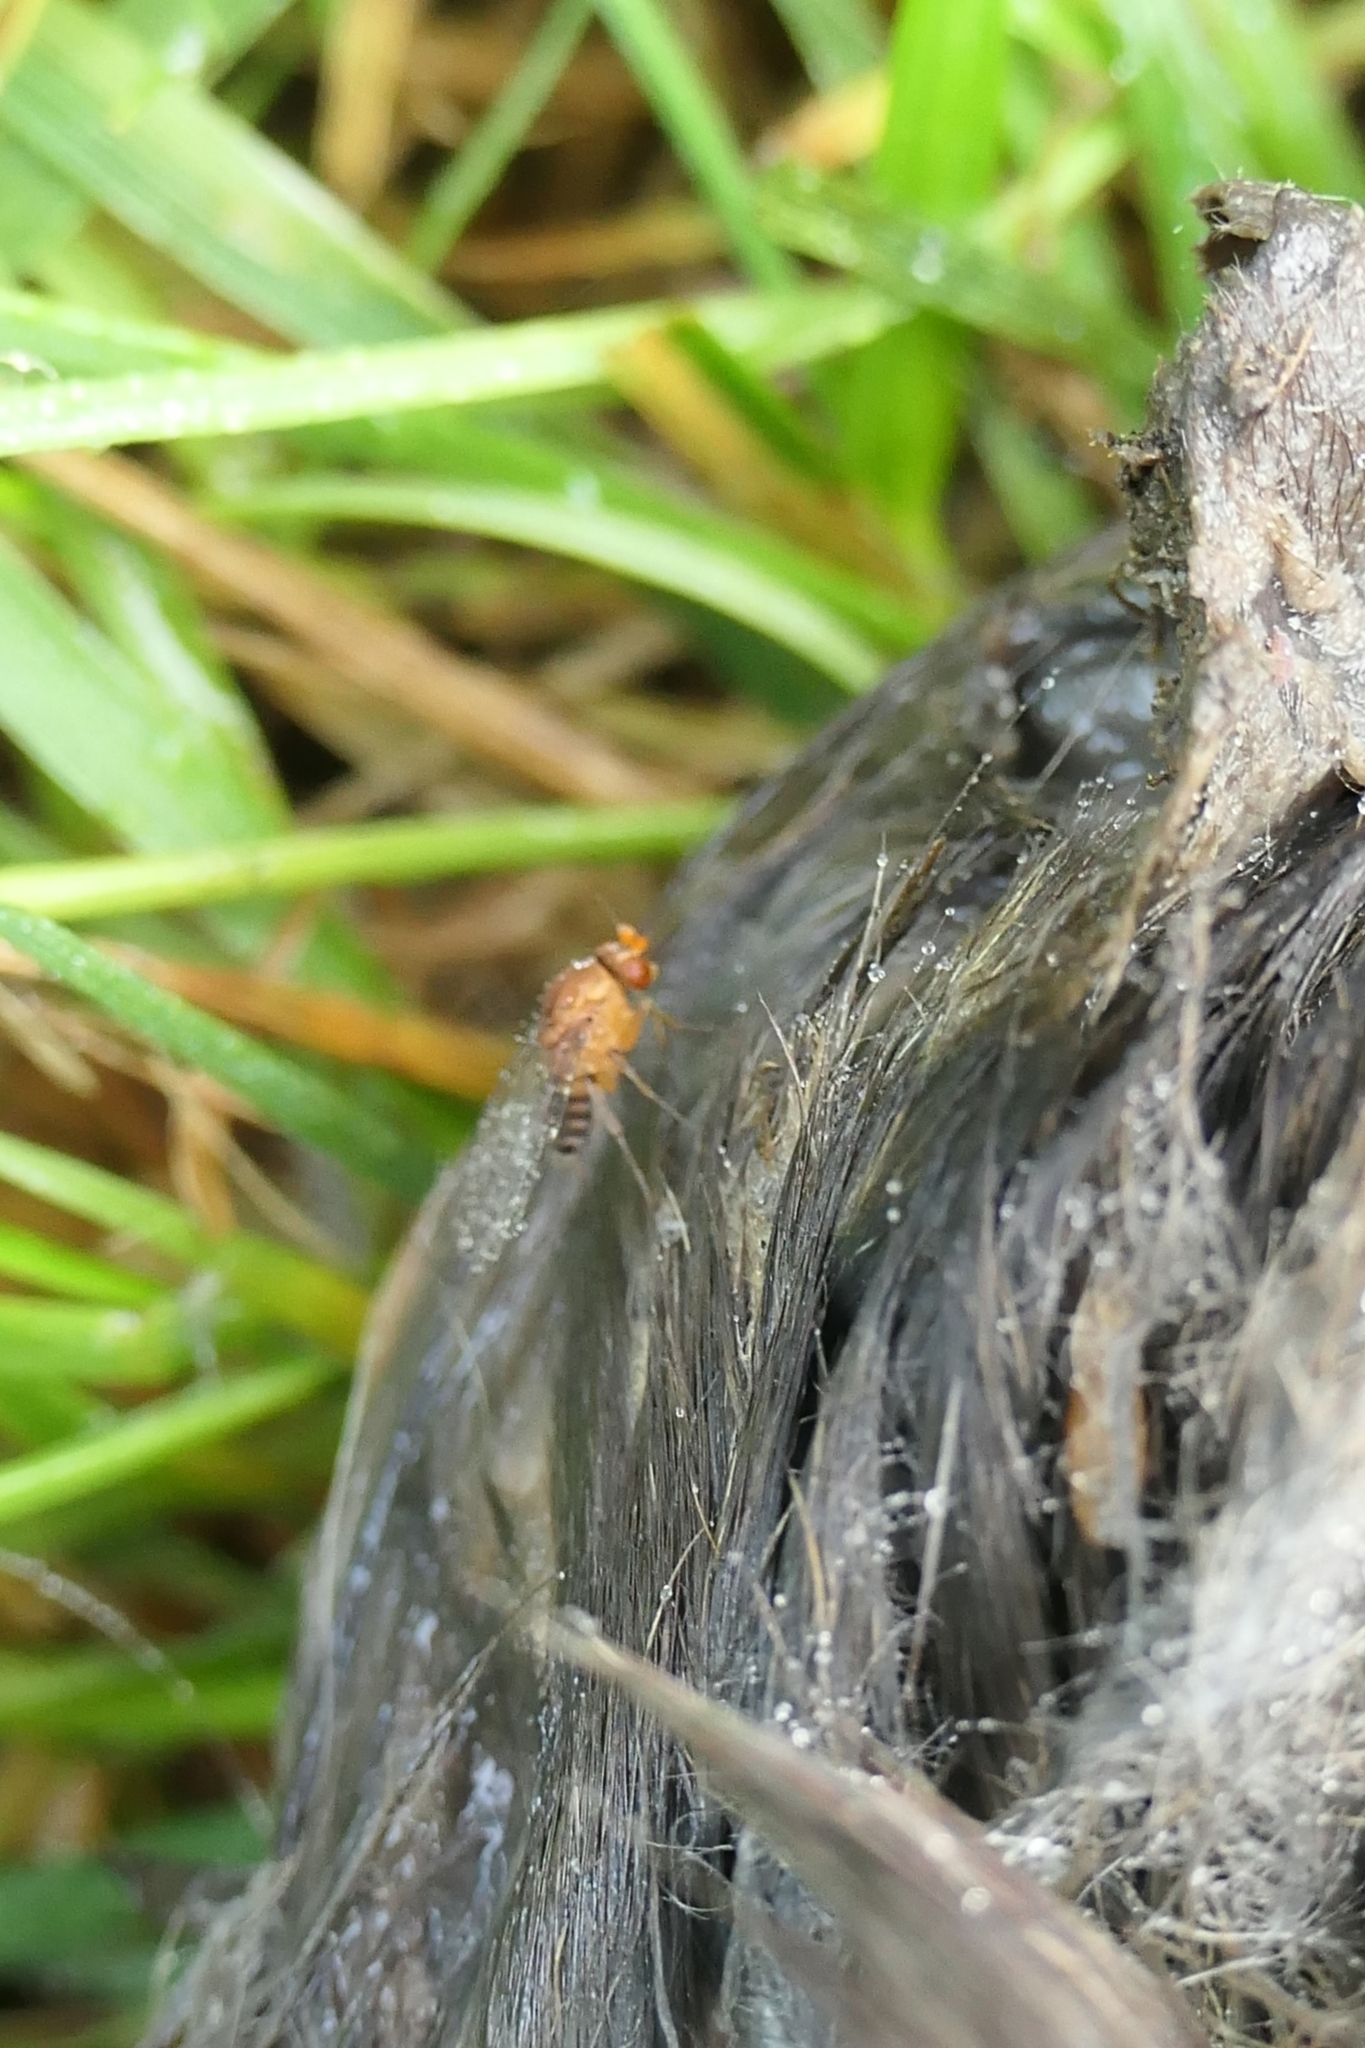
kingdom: Animalia
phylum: Arthropoda
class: Insecta
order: Diptera
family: Phoridae
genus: Sciadocera
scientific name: Sciadocera rufomaculata
